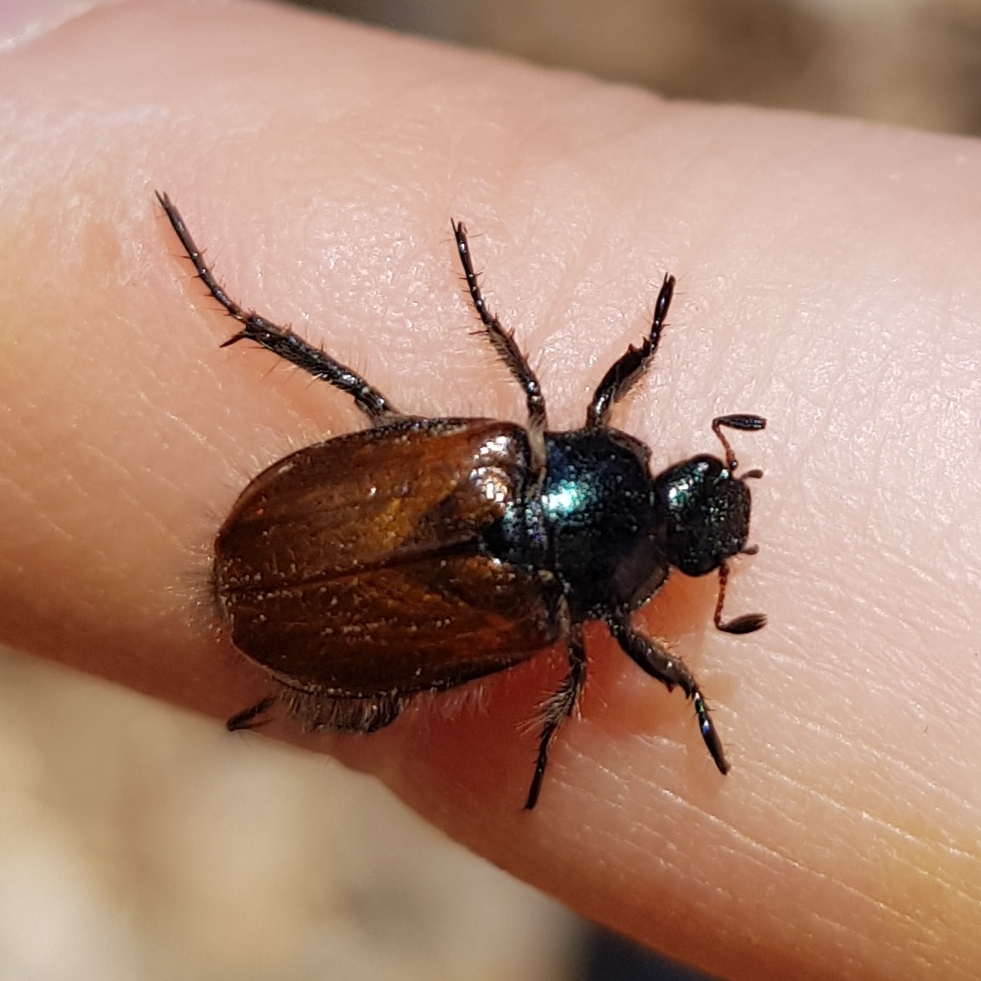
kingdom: Animalia
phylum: Arthropoda
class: Insecta
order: Coleoptera
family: Scarabaeidae
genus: Phyllopertha
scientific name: Phyllopertha horticola
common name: Garden chafer
